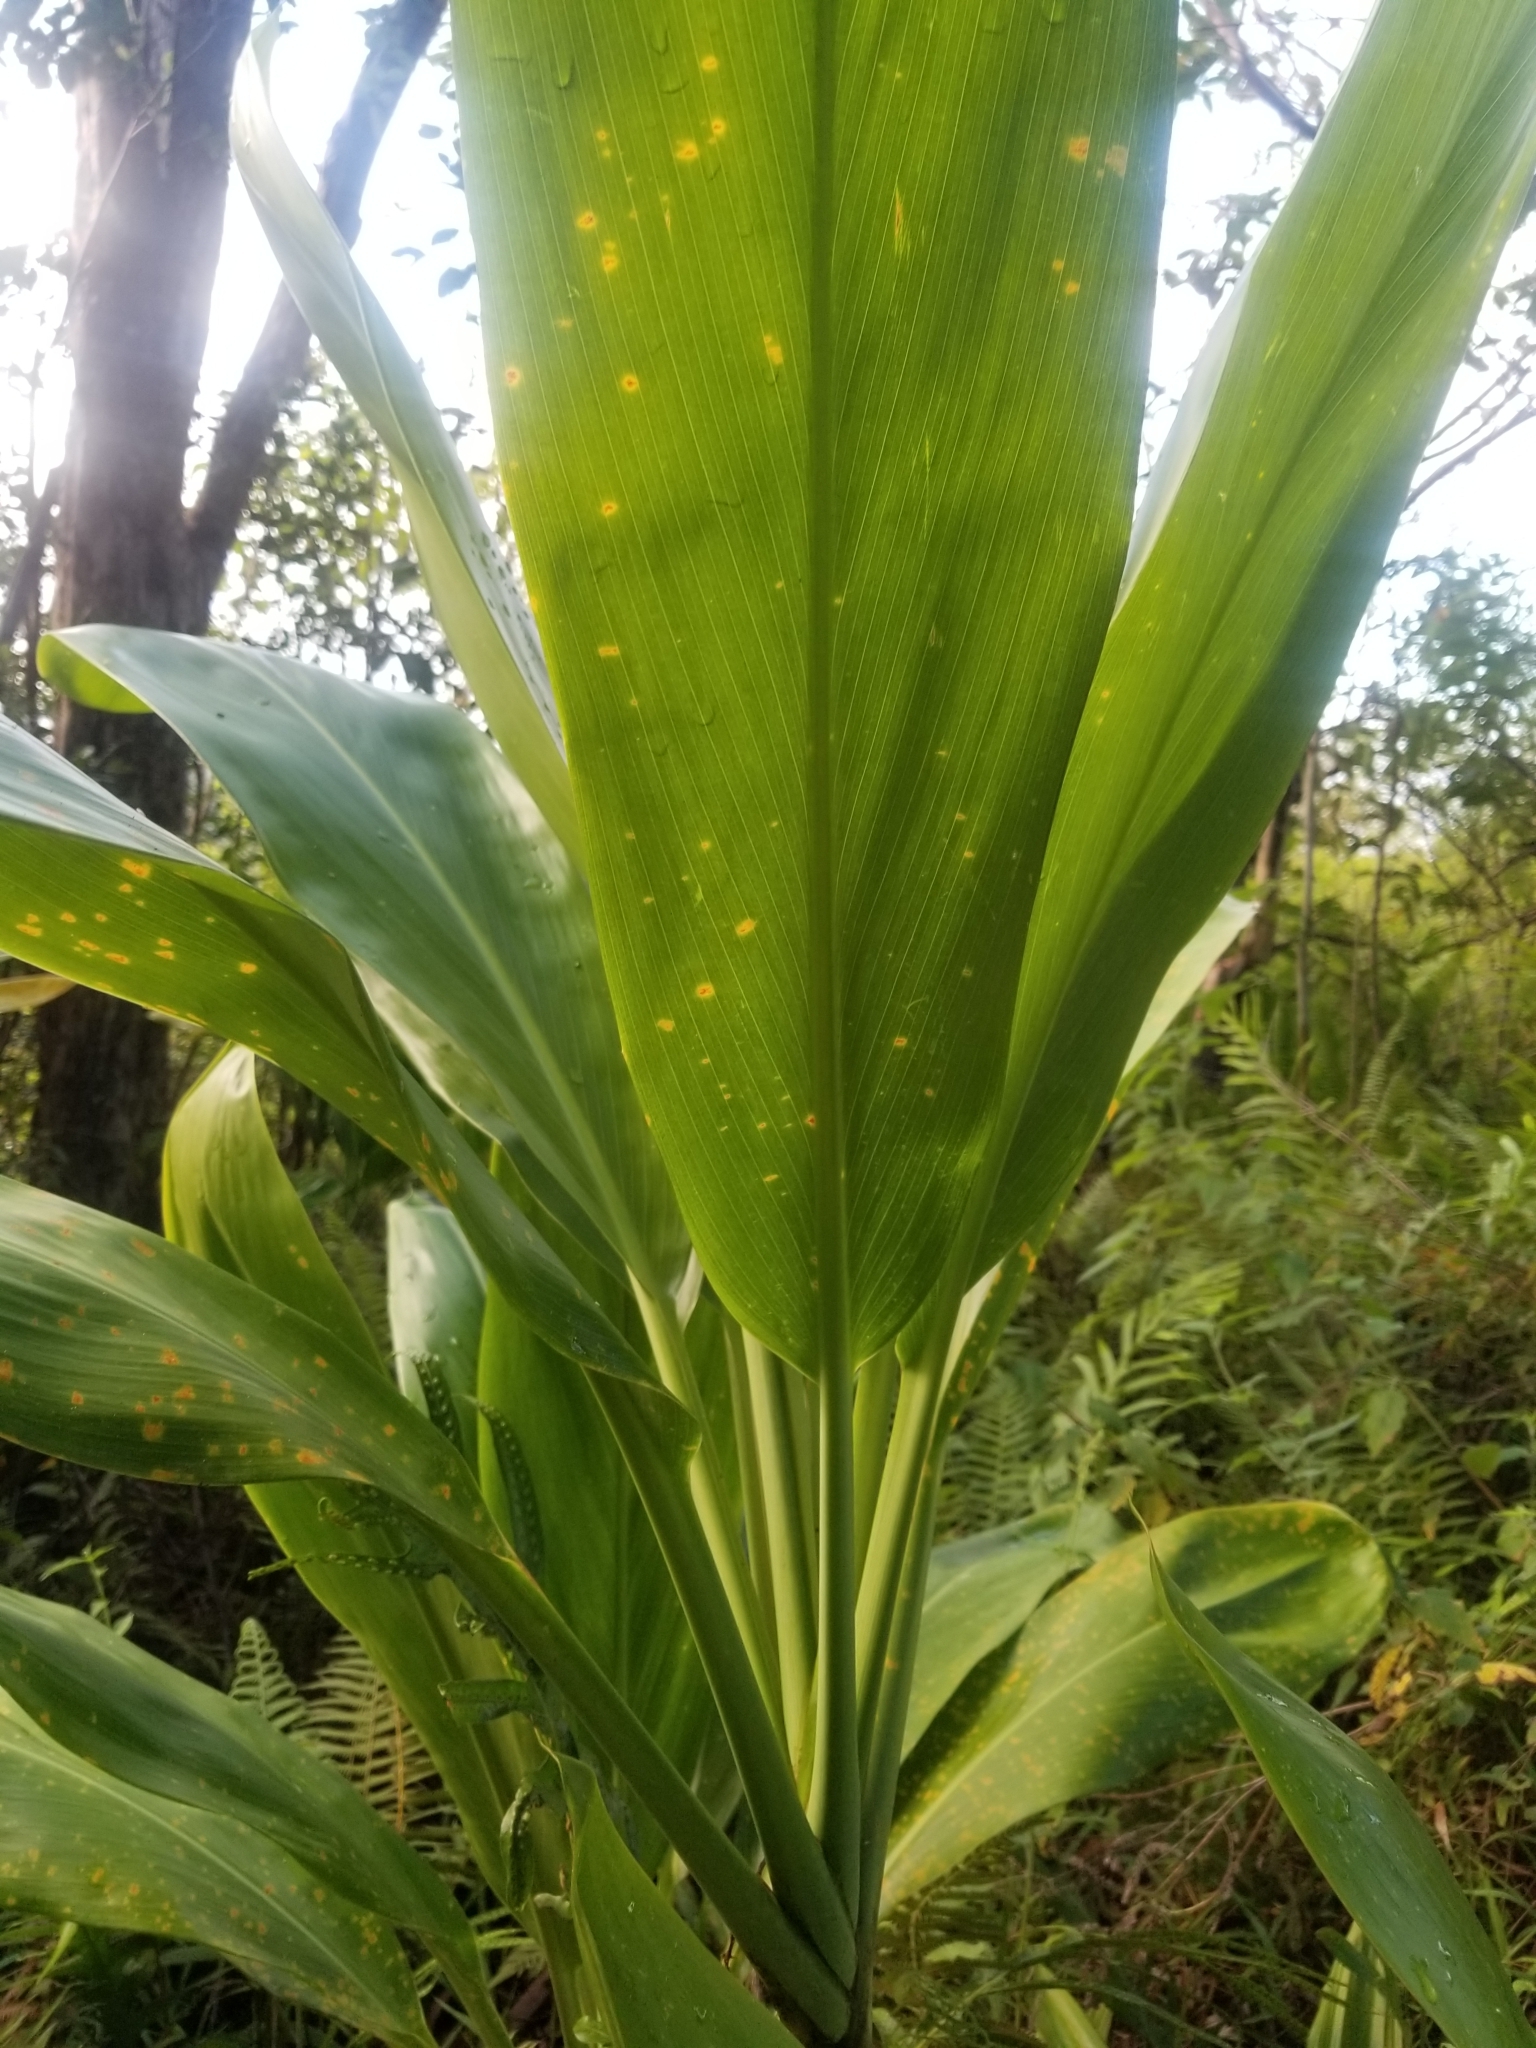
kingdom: Plantae
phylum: Tracheophyta
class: Liliopsida
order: Asparagales
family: Asparagaceae
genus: Cordyline
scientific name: Cordyline fruticosa
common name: Good-luck-plant
